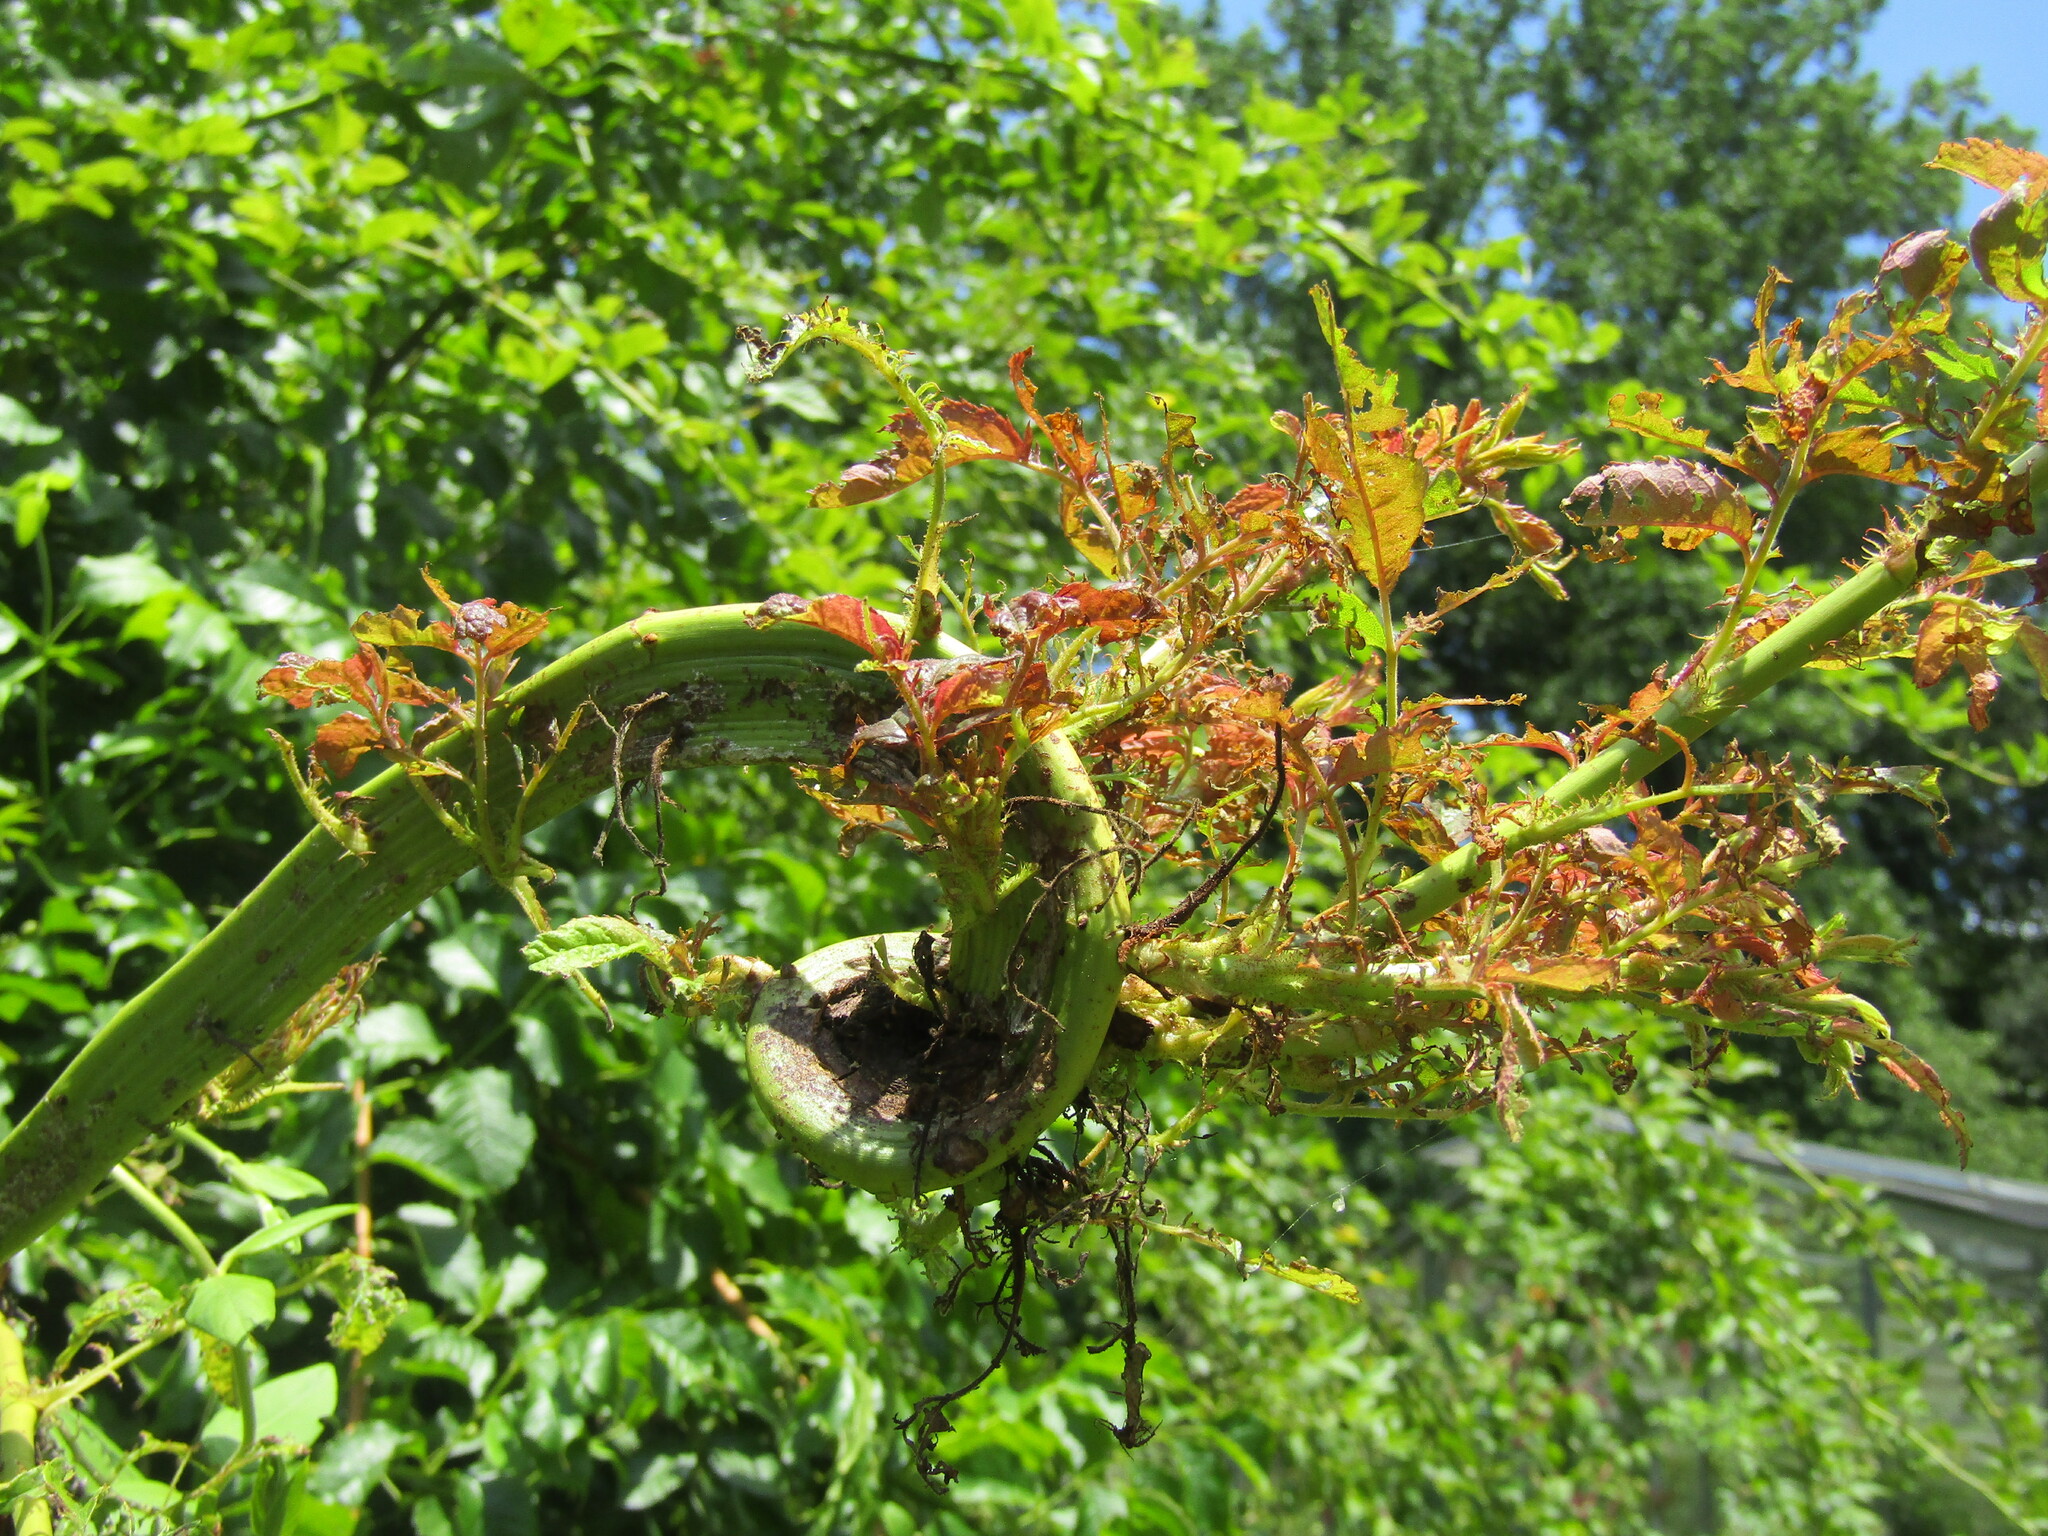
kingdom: Viruses
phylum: Negarnaviricota
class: Ellioviricetes
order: Bunyavirales
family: Fimoviridae
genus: Emaravirus
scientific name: Emaravirus rosae
